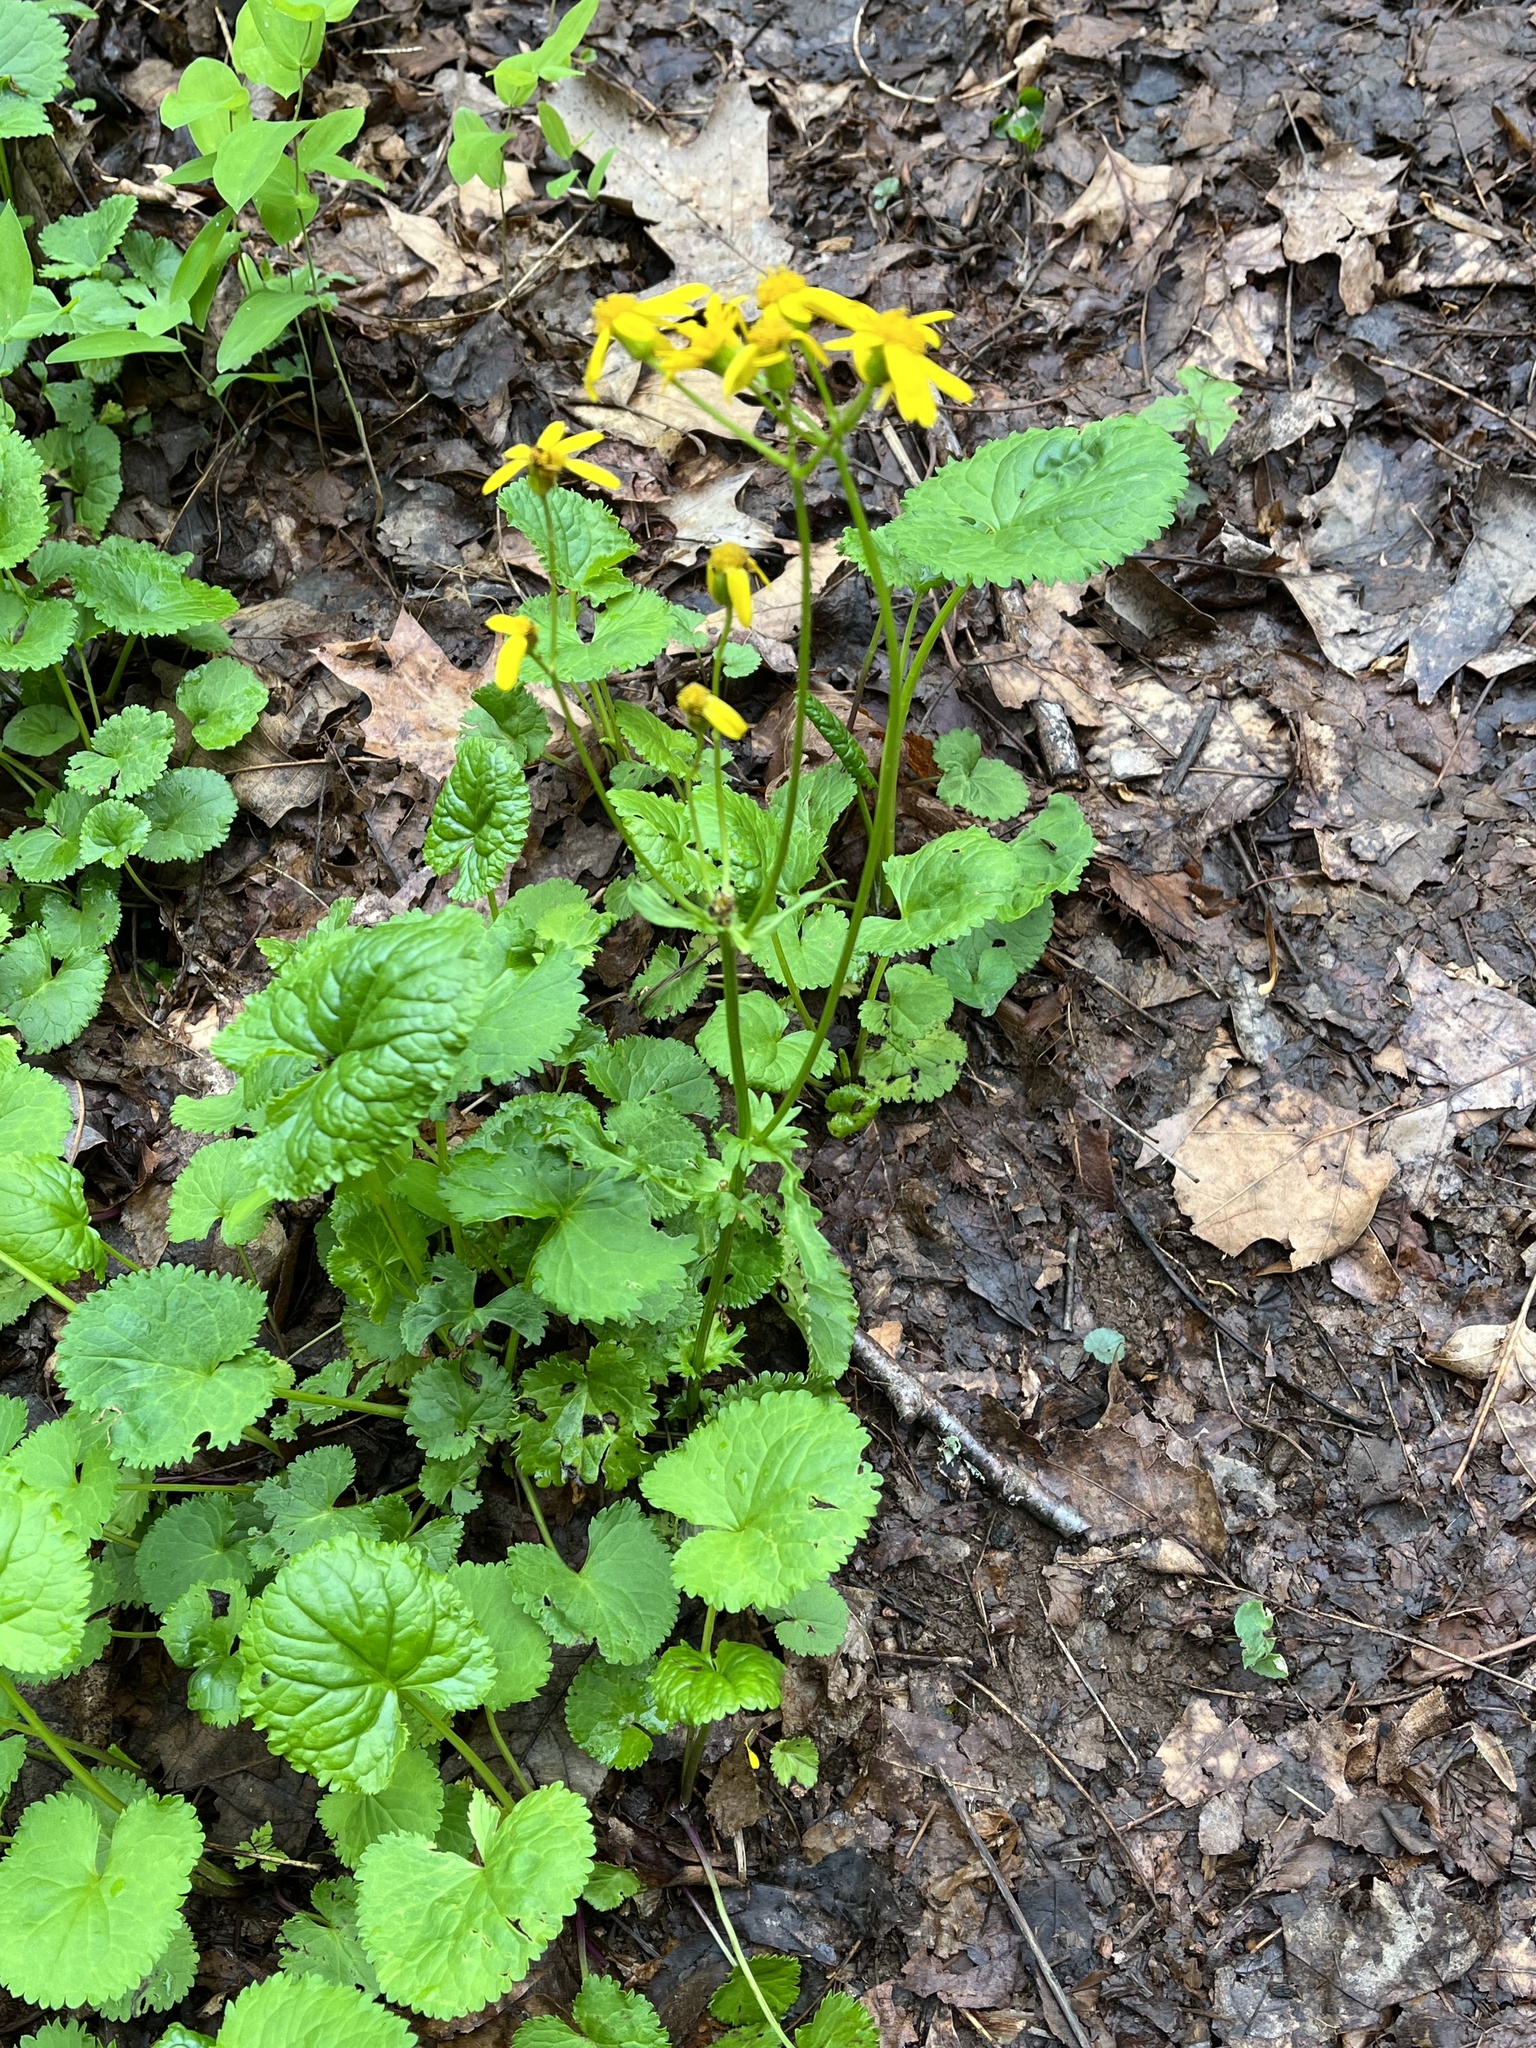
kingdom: Plantae
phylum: Tracheophyta
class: Magnoliopsida
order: Asterales
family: Asteraceae
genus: Packera
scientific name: Packera aurea
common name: Golden groundsel
